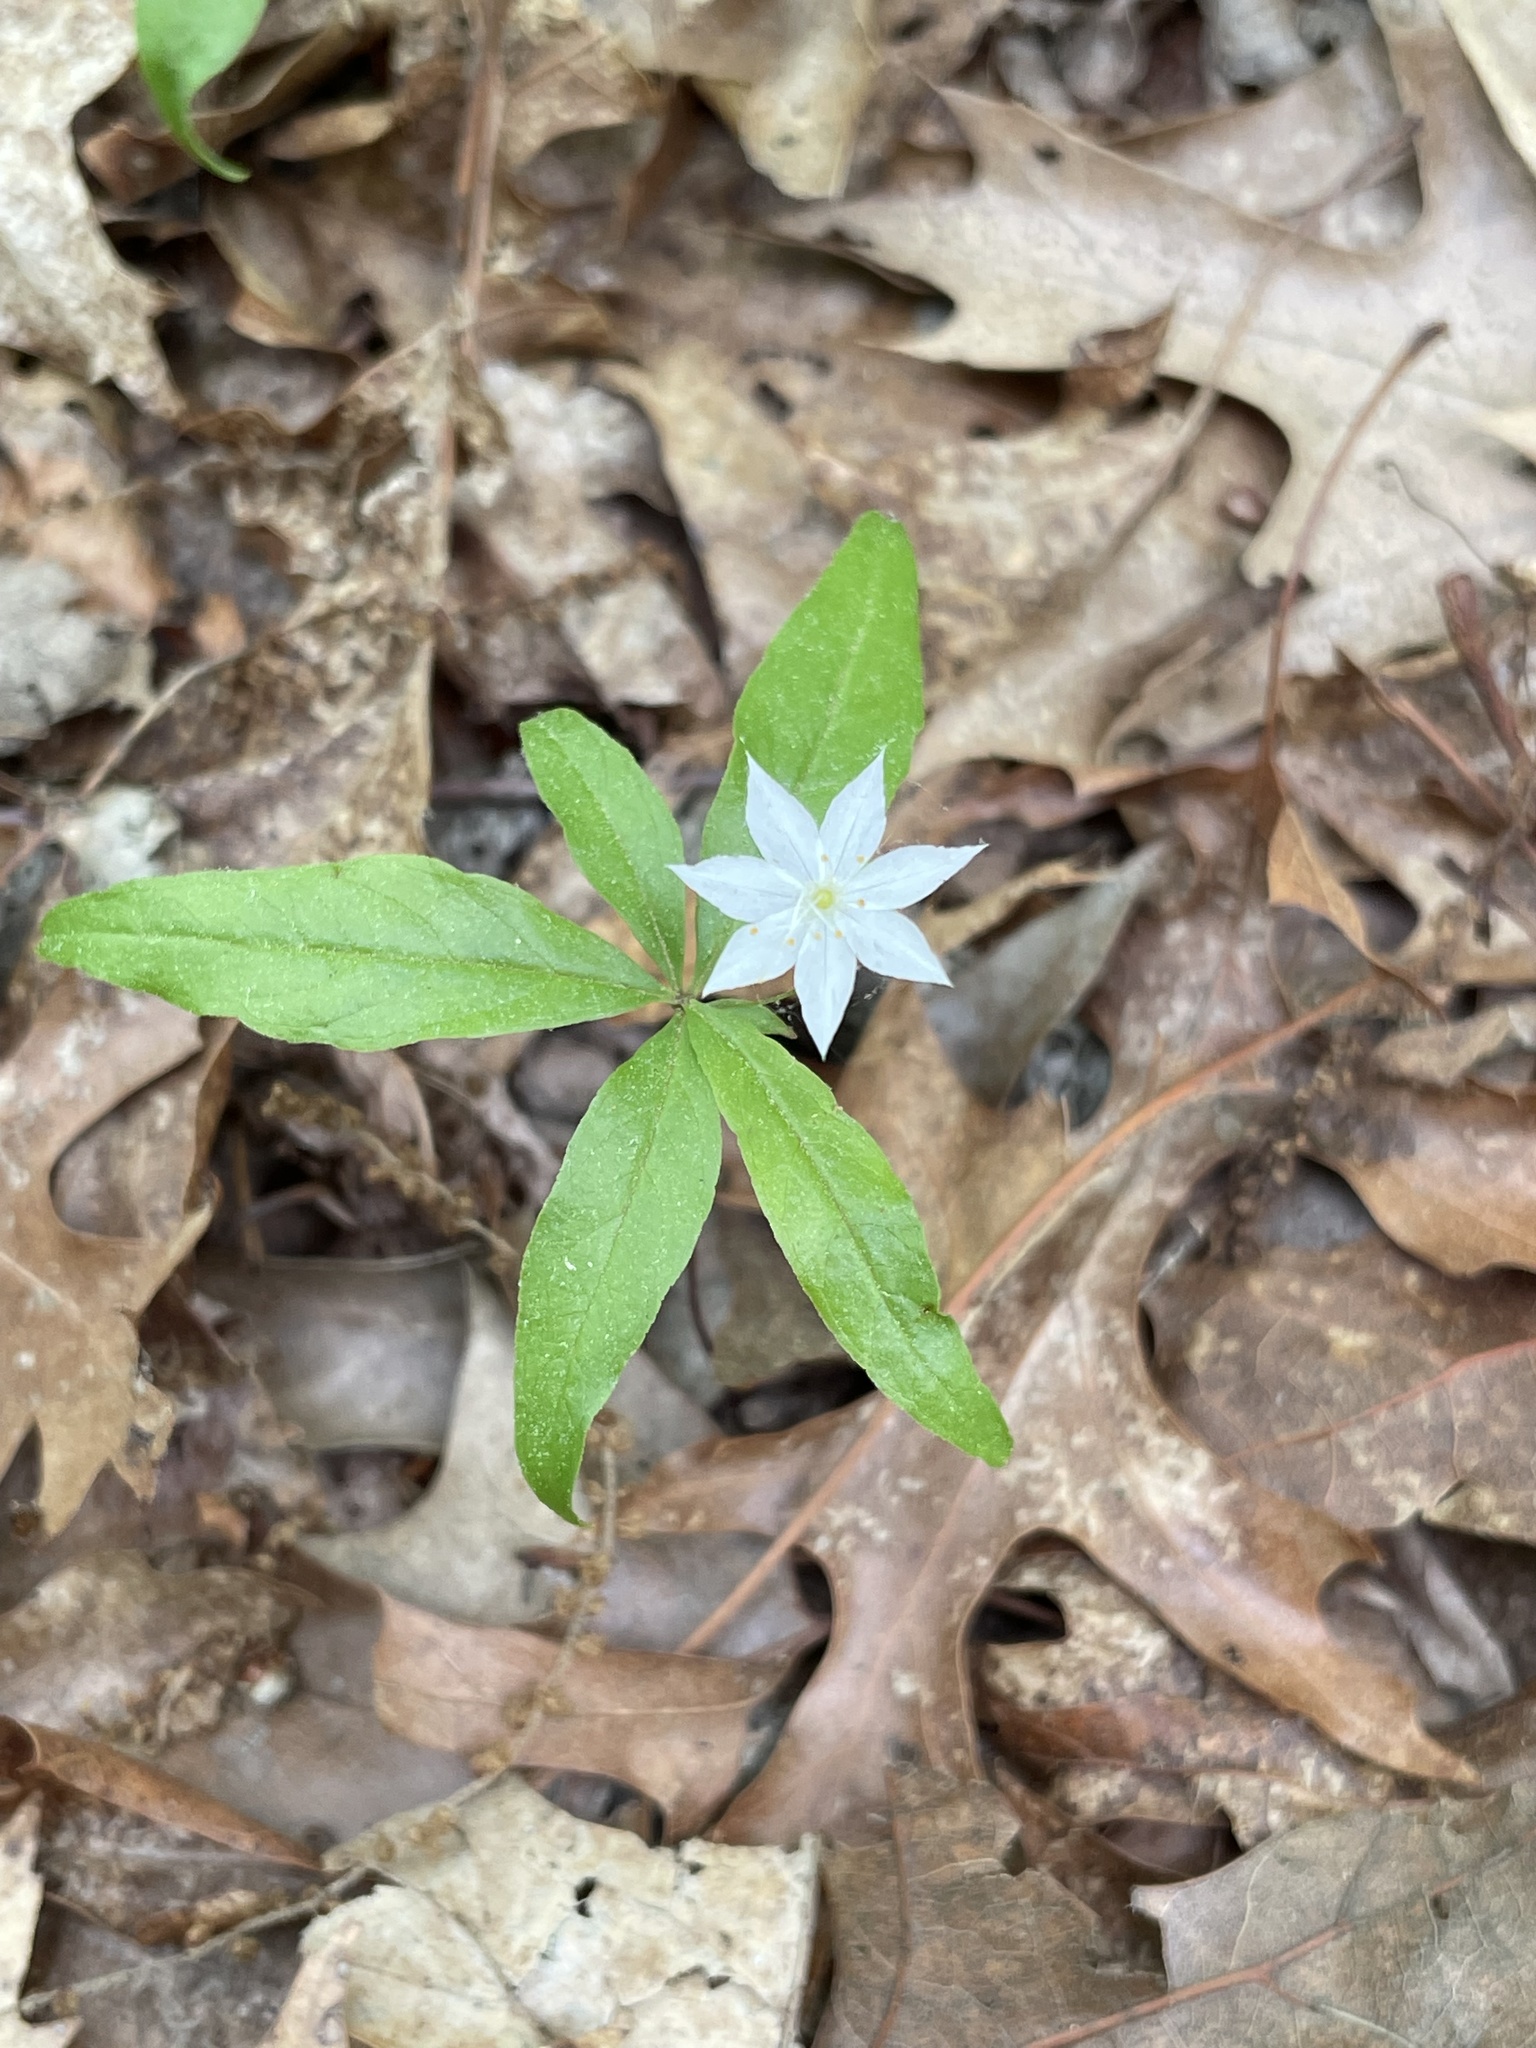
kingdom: Plantae
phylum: Tracheophyta
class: Magnoliopsida
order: Ericales
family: Primulaceae
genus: Lysimachia
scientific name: Lysimachia borealis
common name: American starflower
